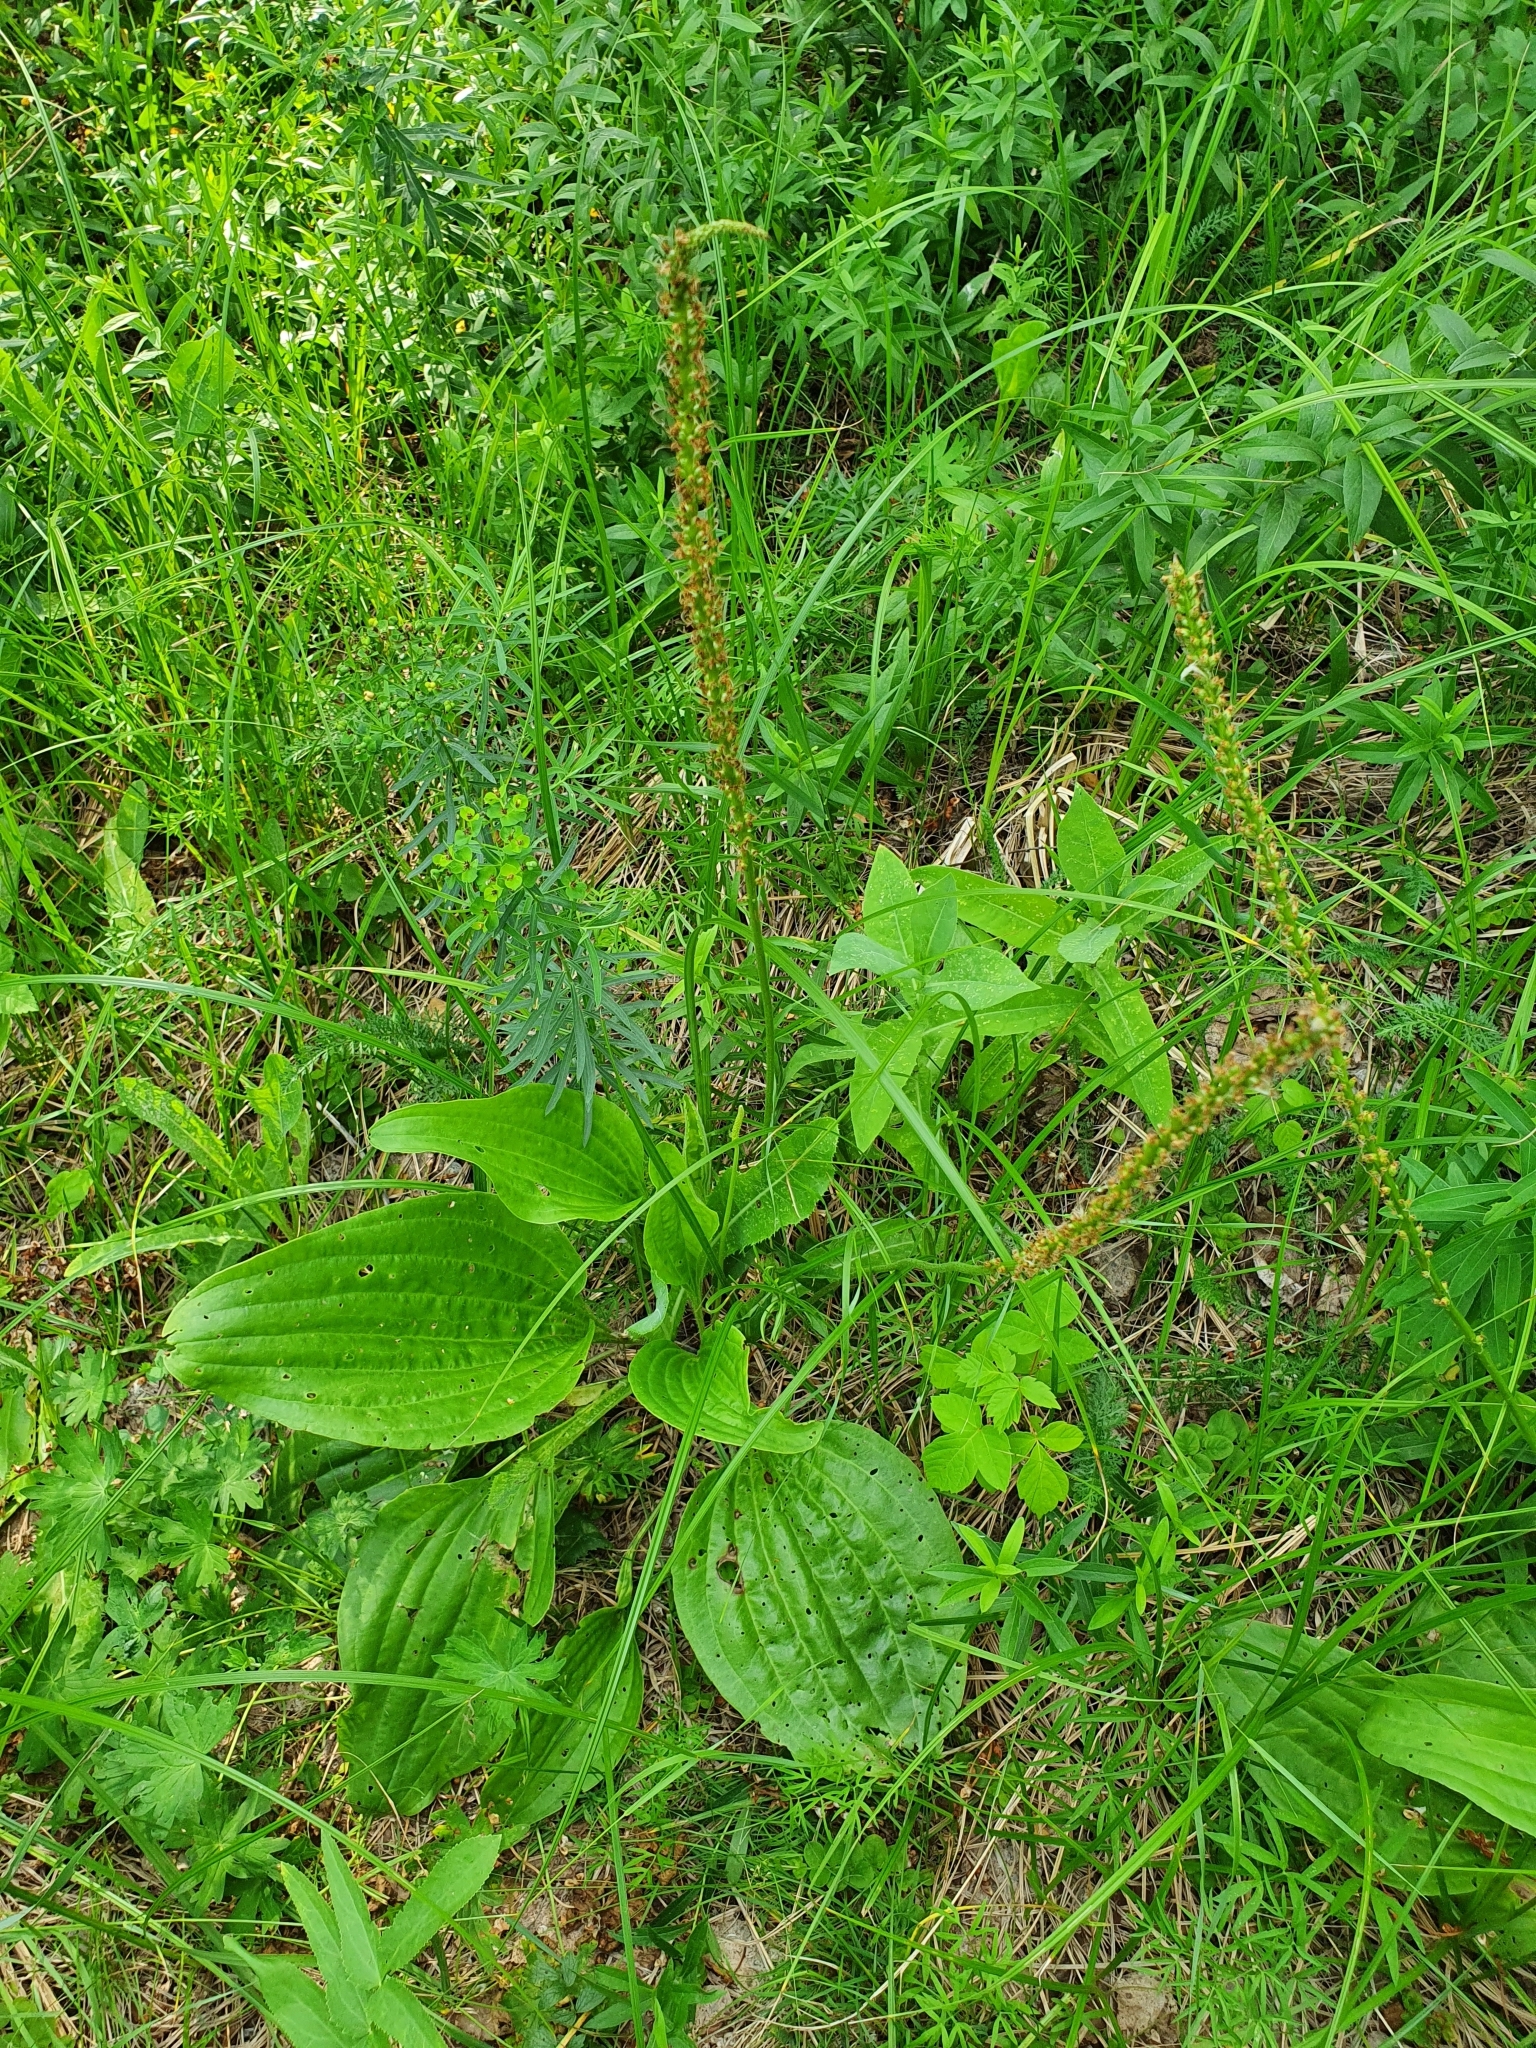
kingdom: Plantae
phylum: Tracheophyta
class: Magnoliopsida
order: Lamiales
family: Plantaginaceae
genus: Plantago
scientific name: Plantago cornuti
